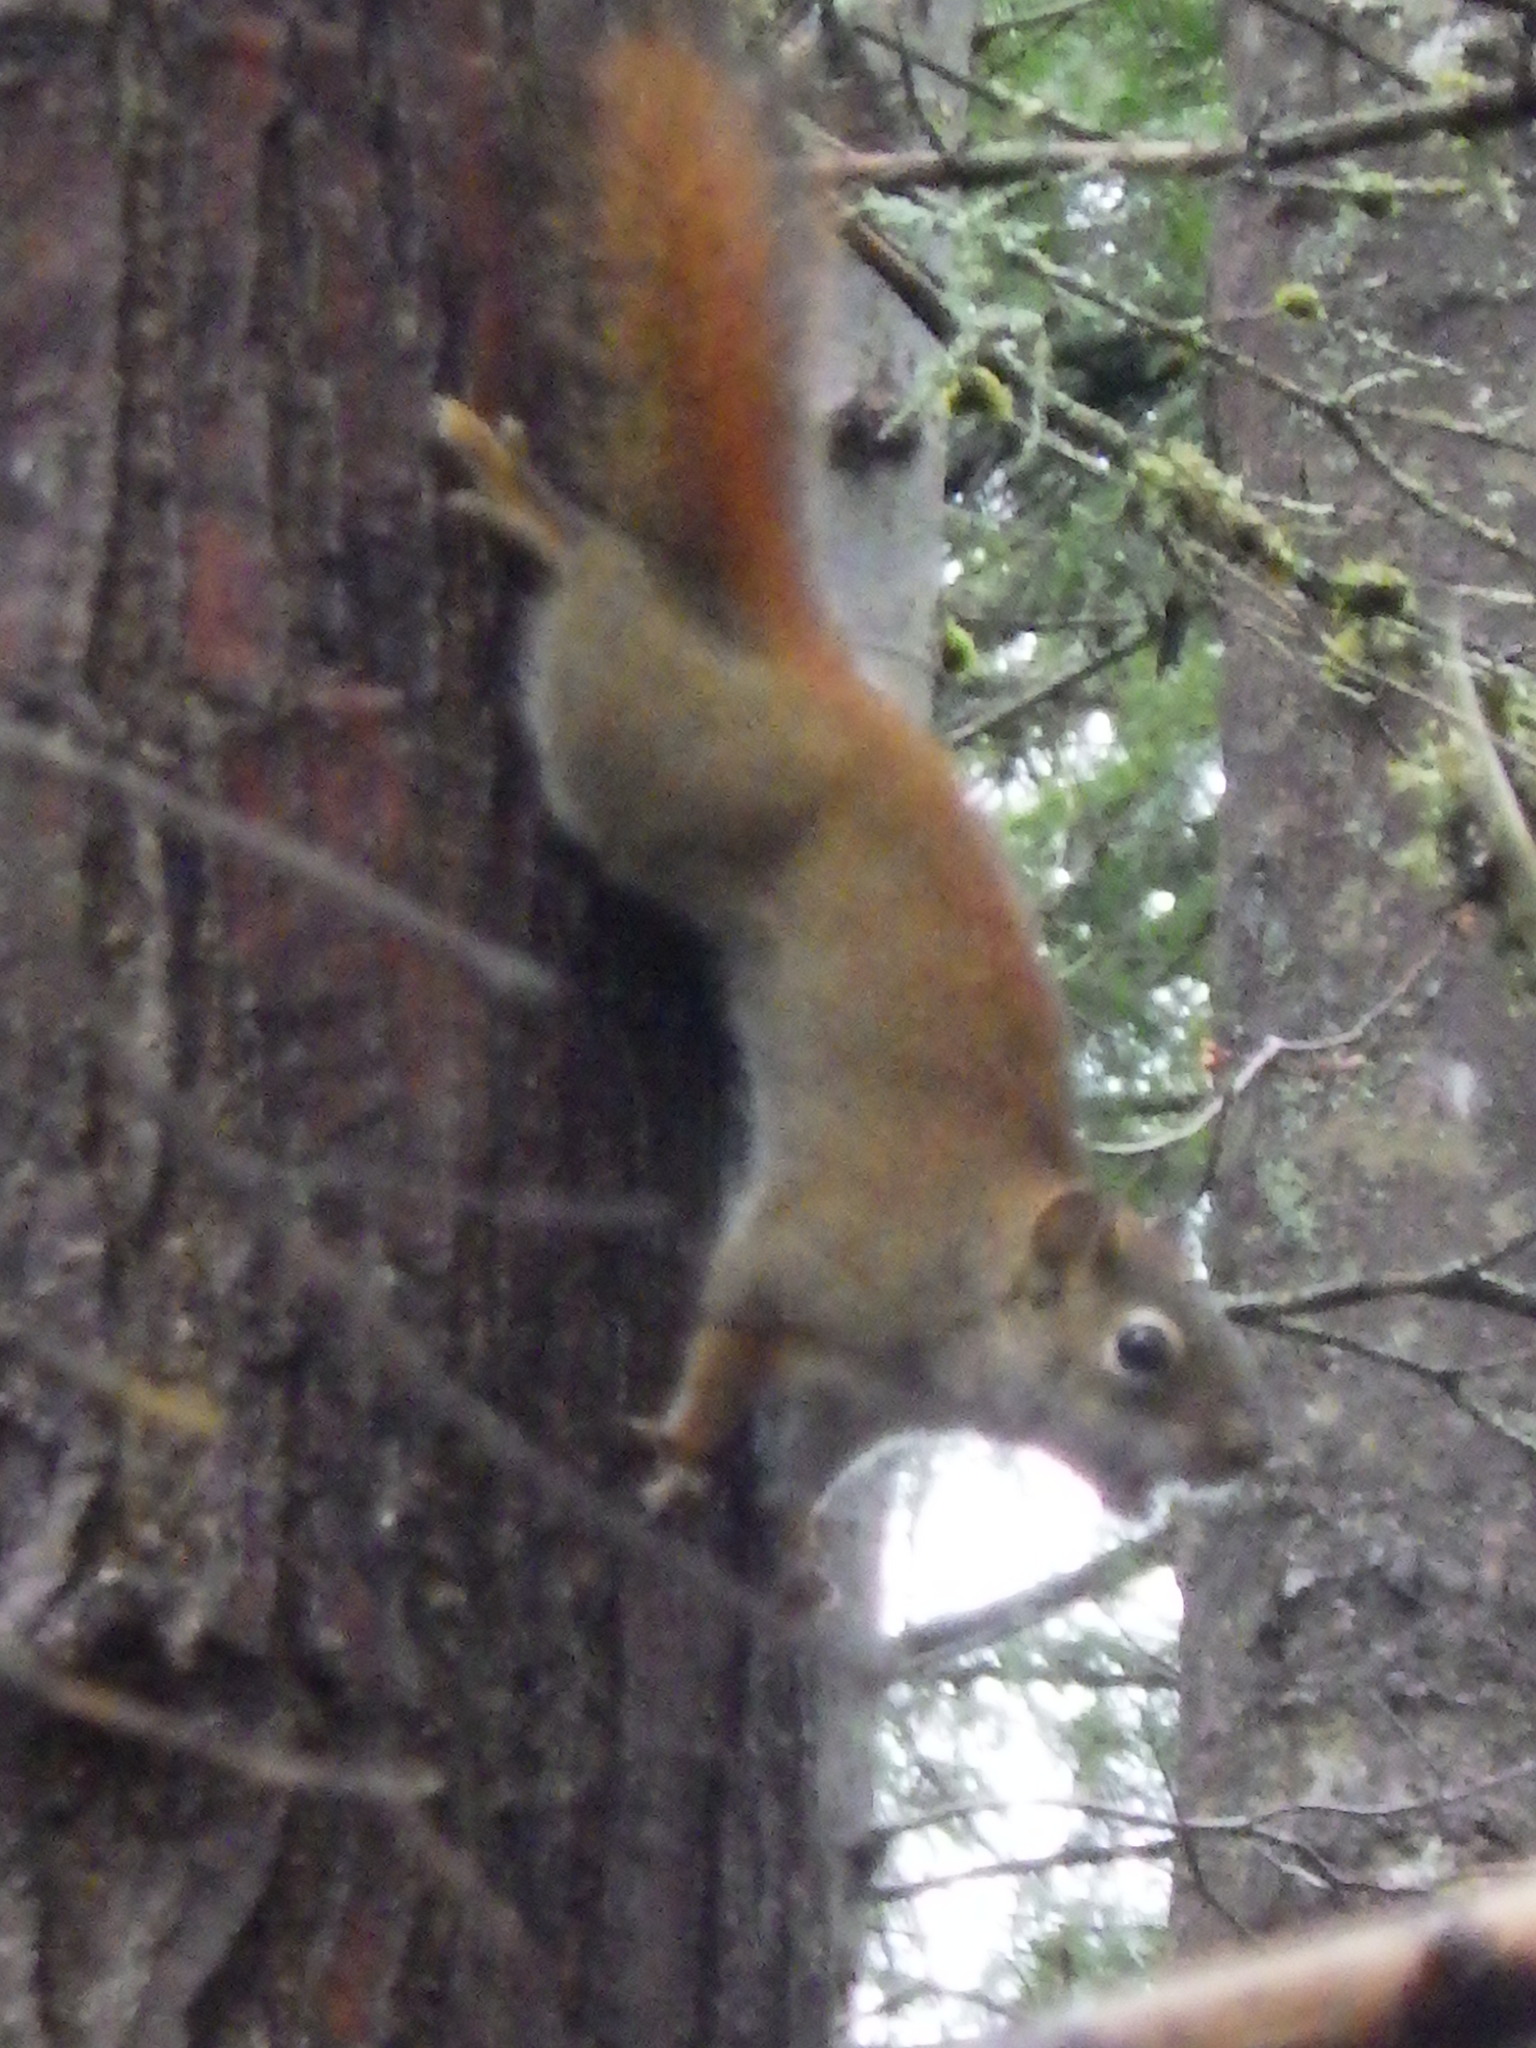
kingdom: Animalia
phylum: Chordata
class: Mammalia
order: Rodentia
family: Sciuridae
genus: Tamiasciurus
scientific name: Tamiasciurus hudsonicus
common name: Red squirrel
